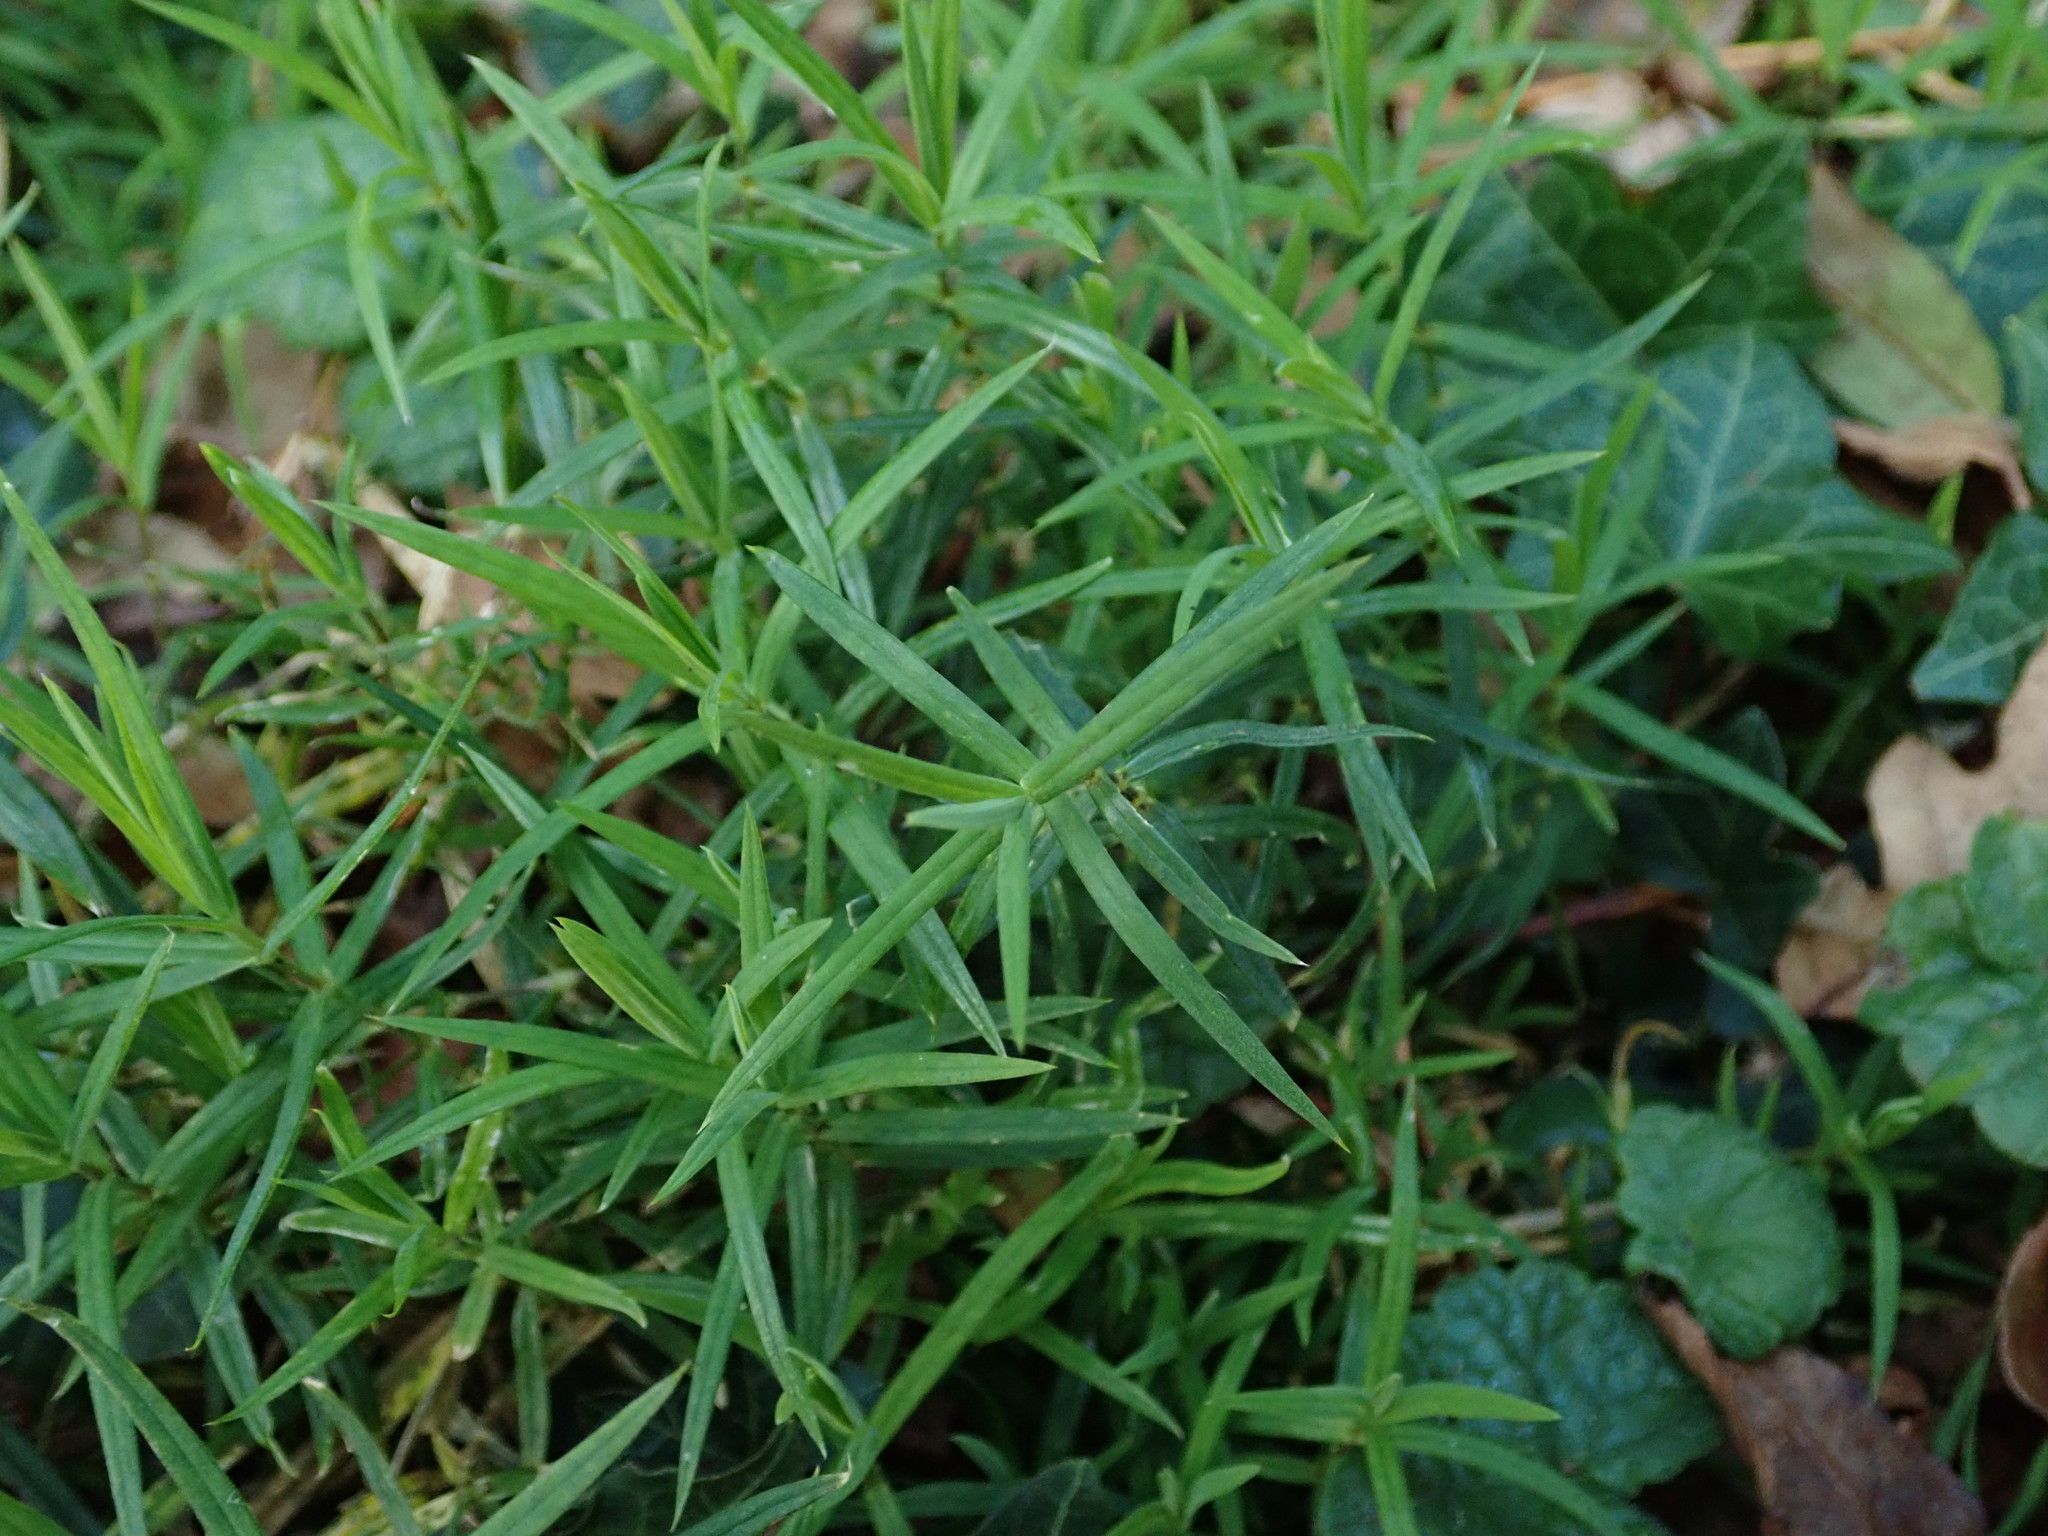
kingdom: Plantae
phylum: Tracheophyta
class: Magnoliopsida
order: Caryophyllales
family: Caryophyllaceae
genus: Rabelera
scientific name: Rabelera holostea
